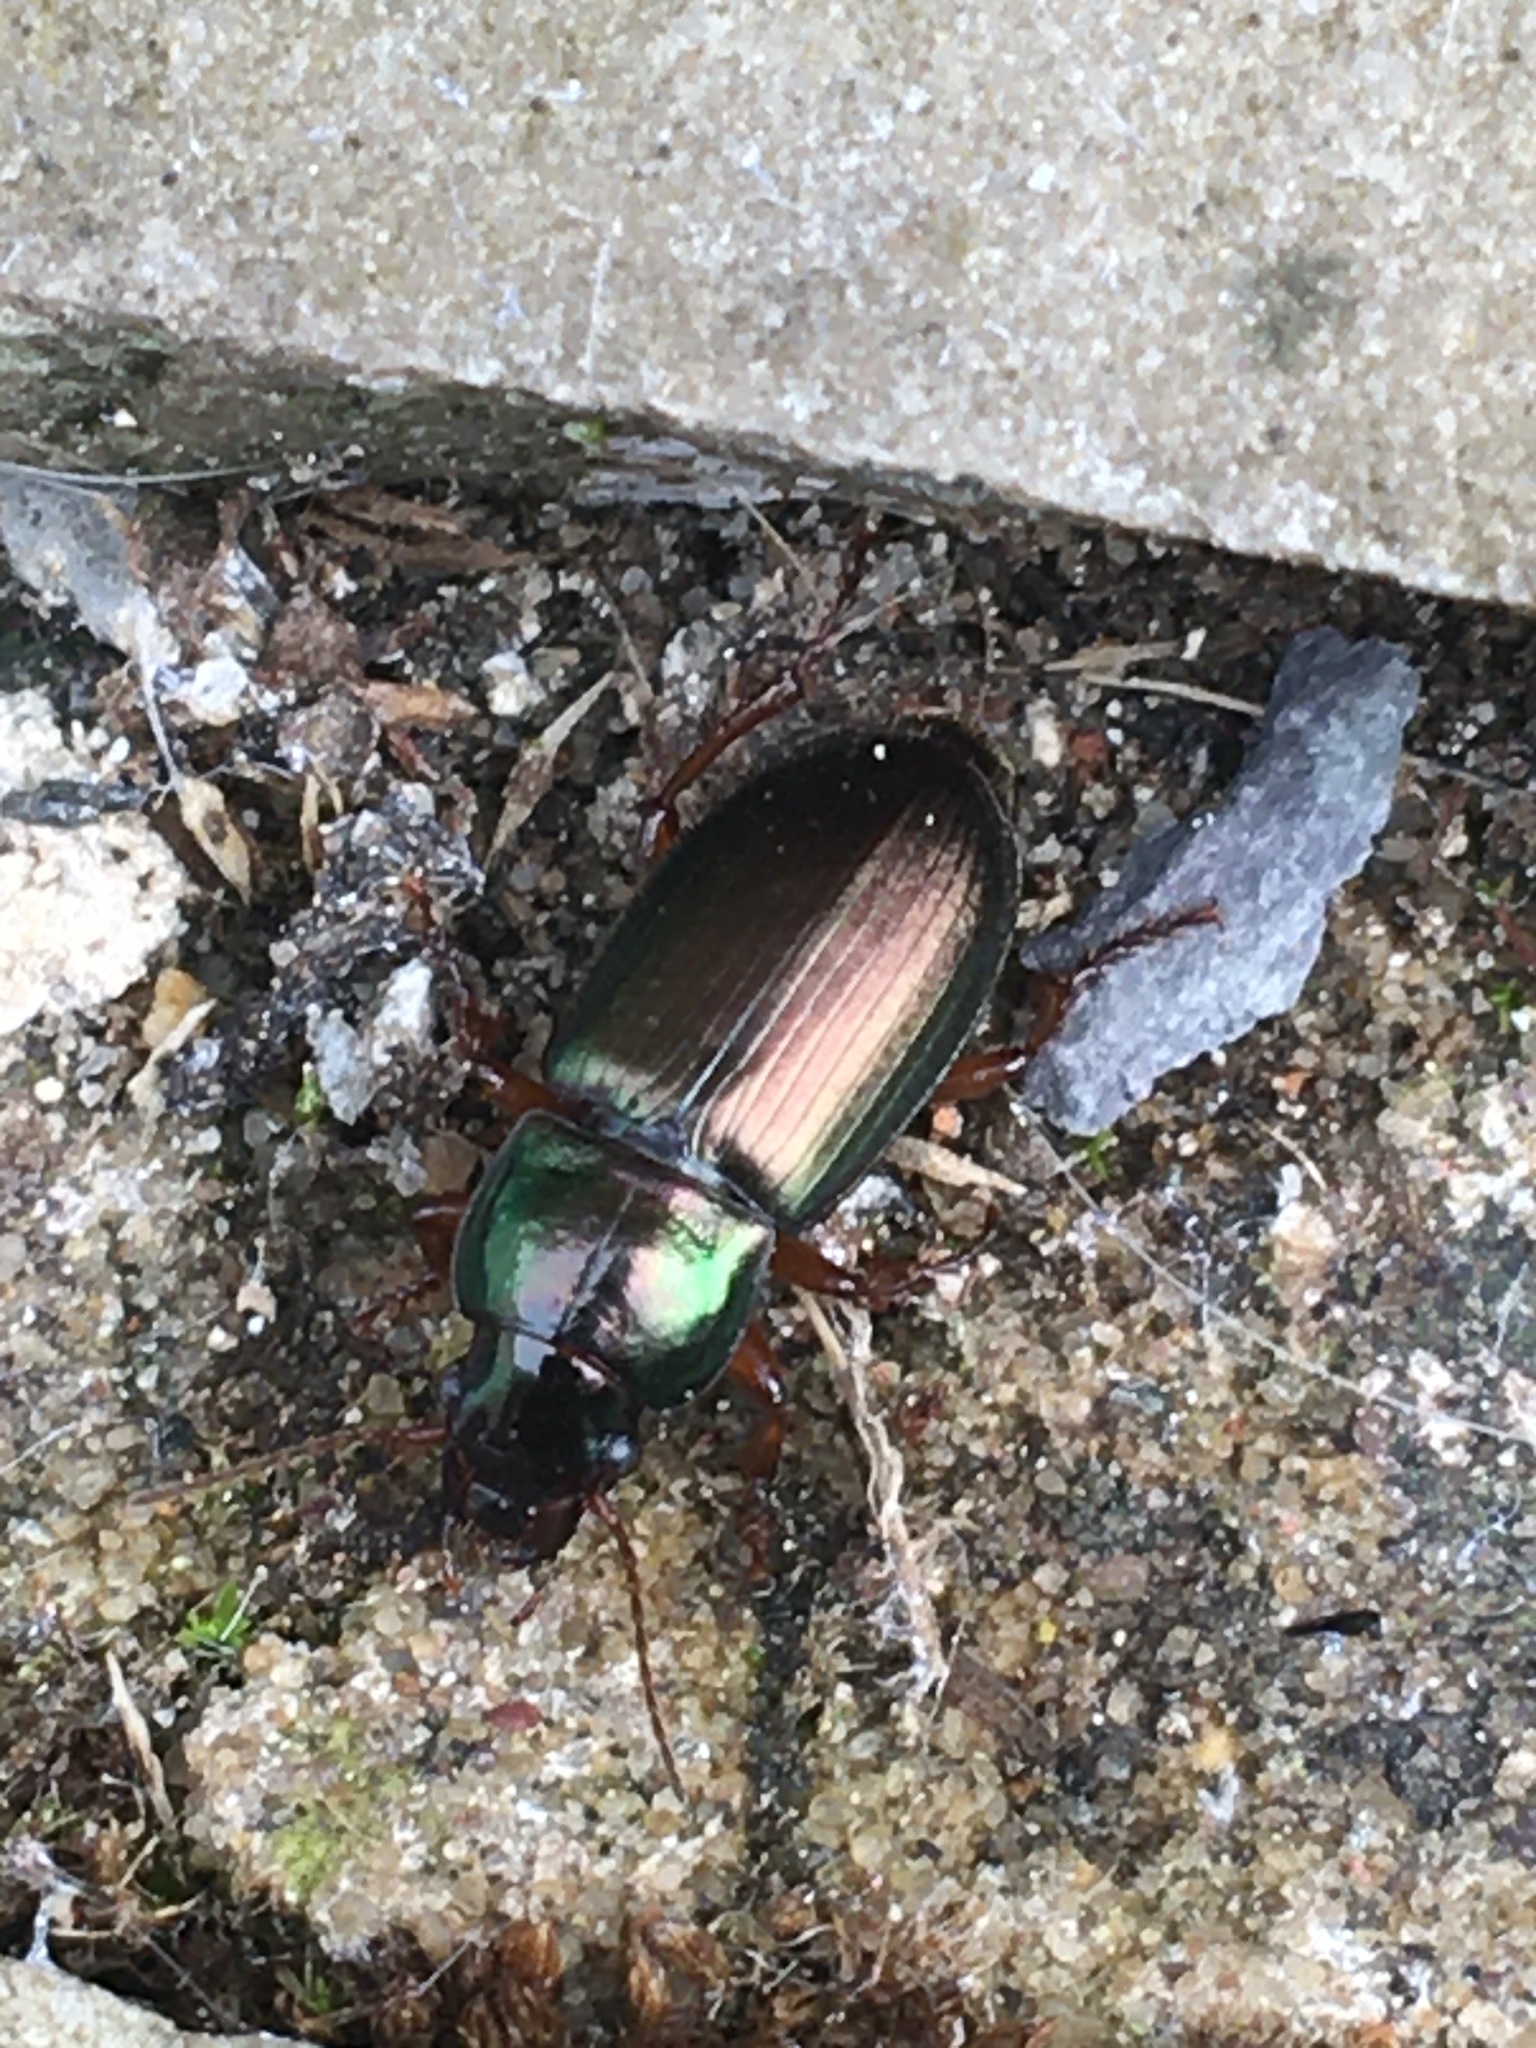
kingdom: Animalia
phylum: Arthropoda
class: Insecta
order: Coleoptera
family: Carabidae
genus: Harpalus
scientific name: Harpalus affinis
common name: Polychrome harp ground beetle
